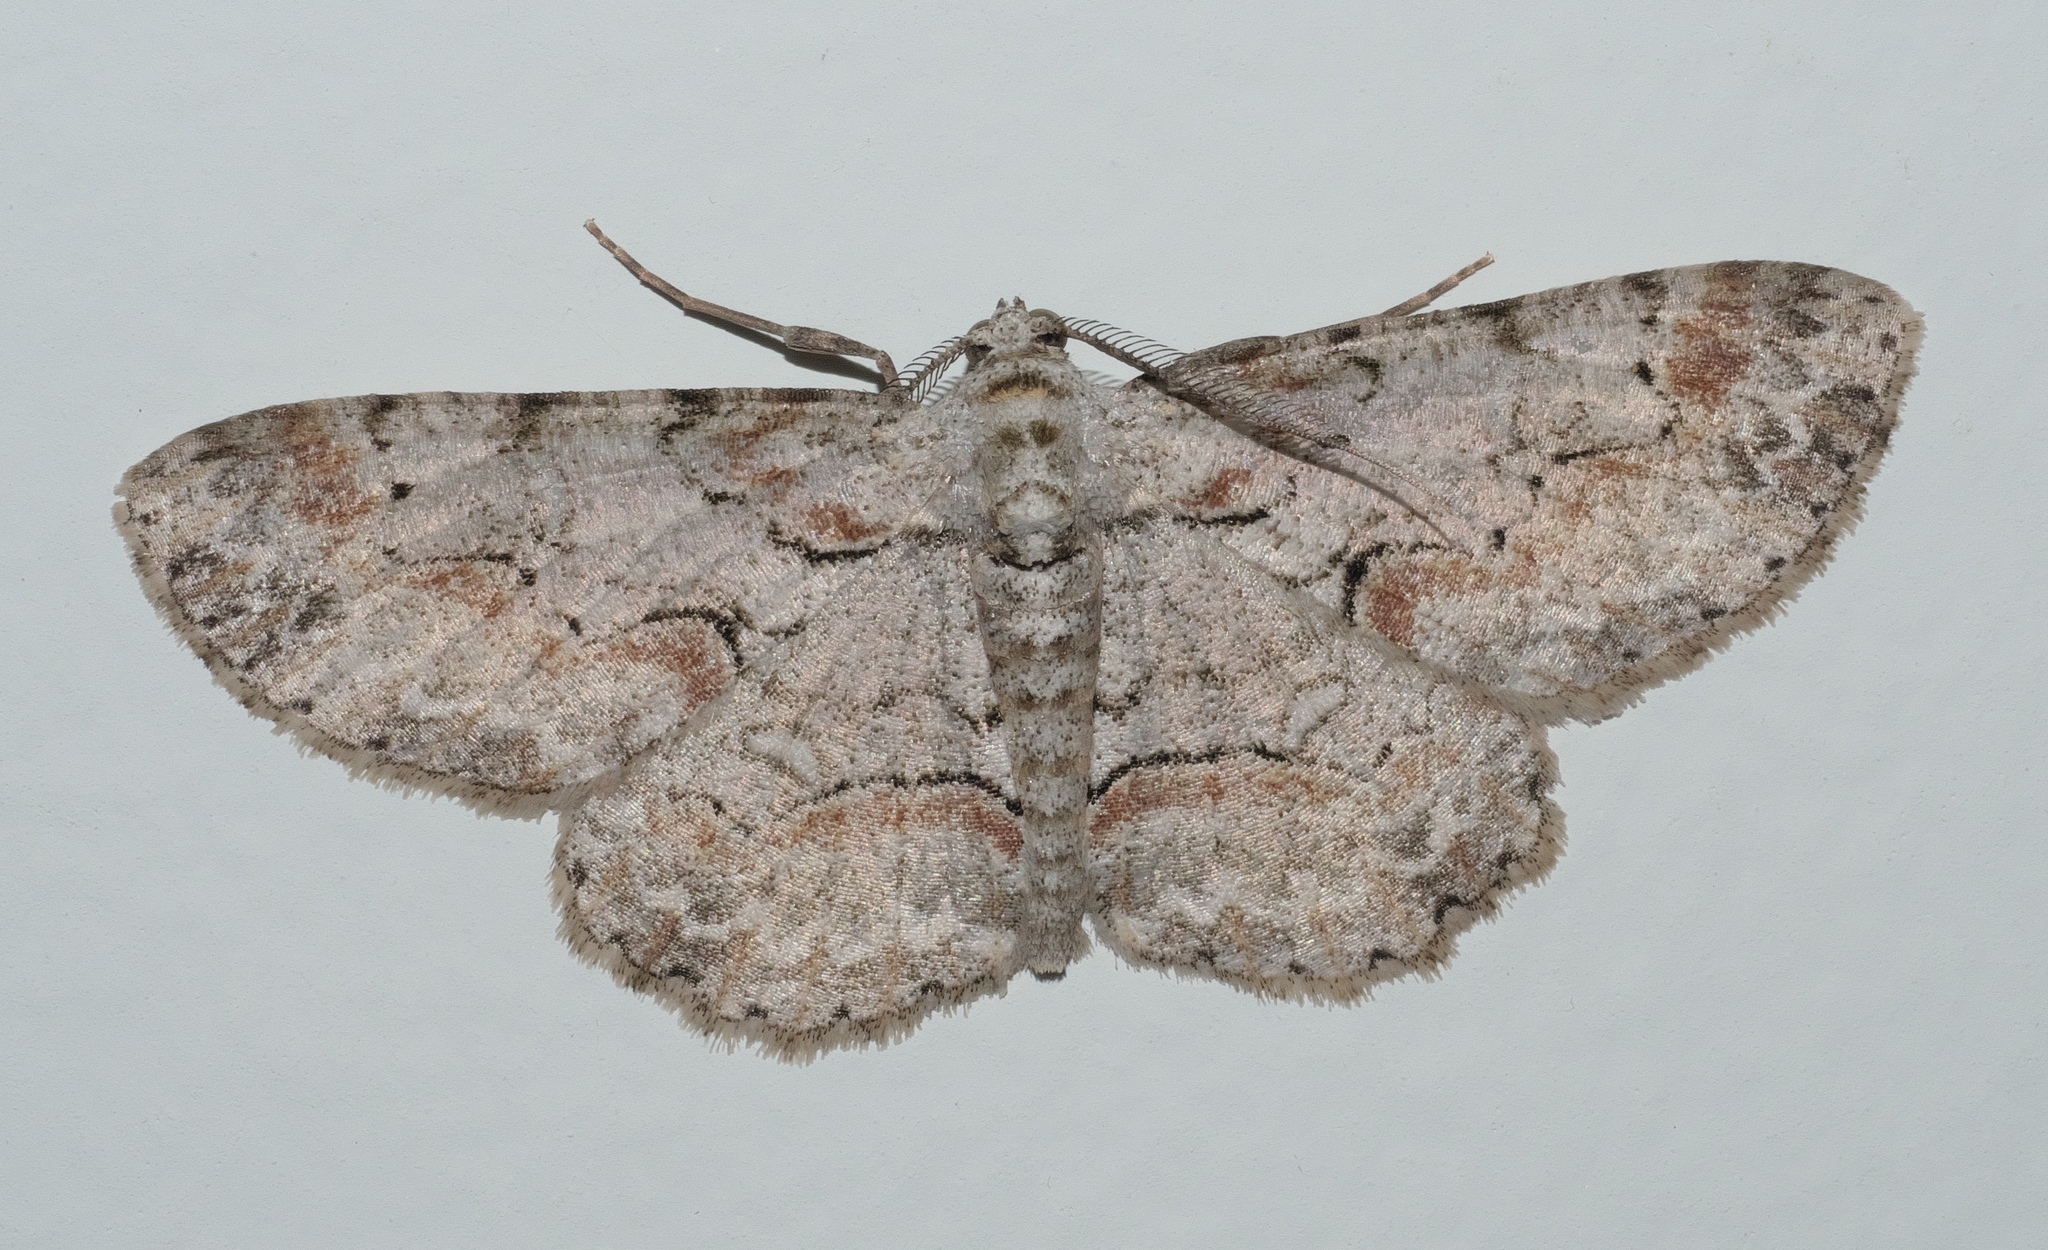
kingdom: Animalia
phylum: Arthropoda
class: Insecta
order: Lepidoptera
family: Geometridae
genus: Iridopsis
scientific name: Iridopsis defectaria
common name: Brown-shaded gray
